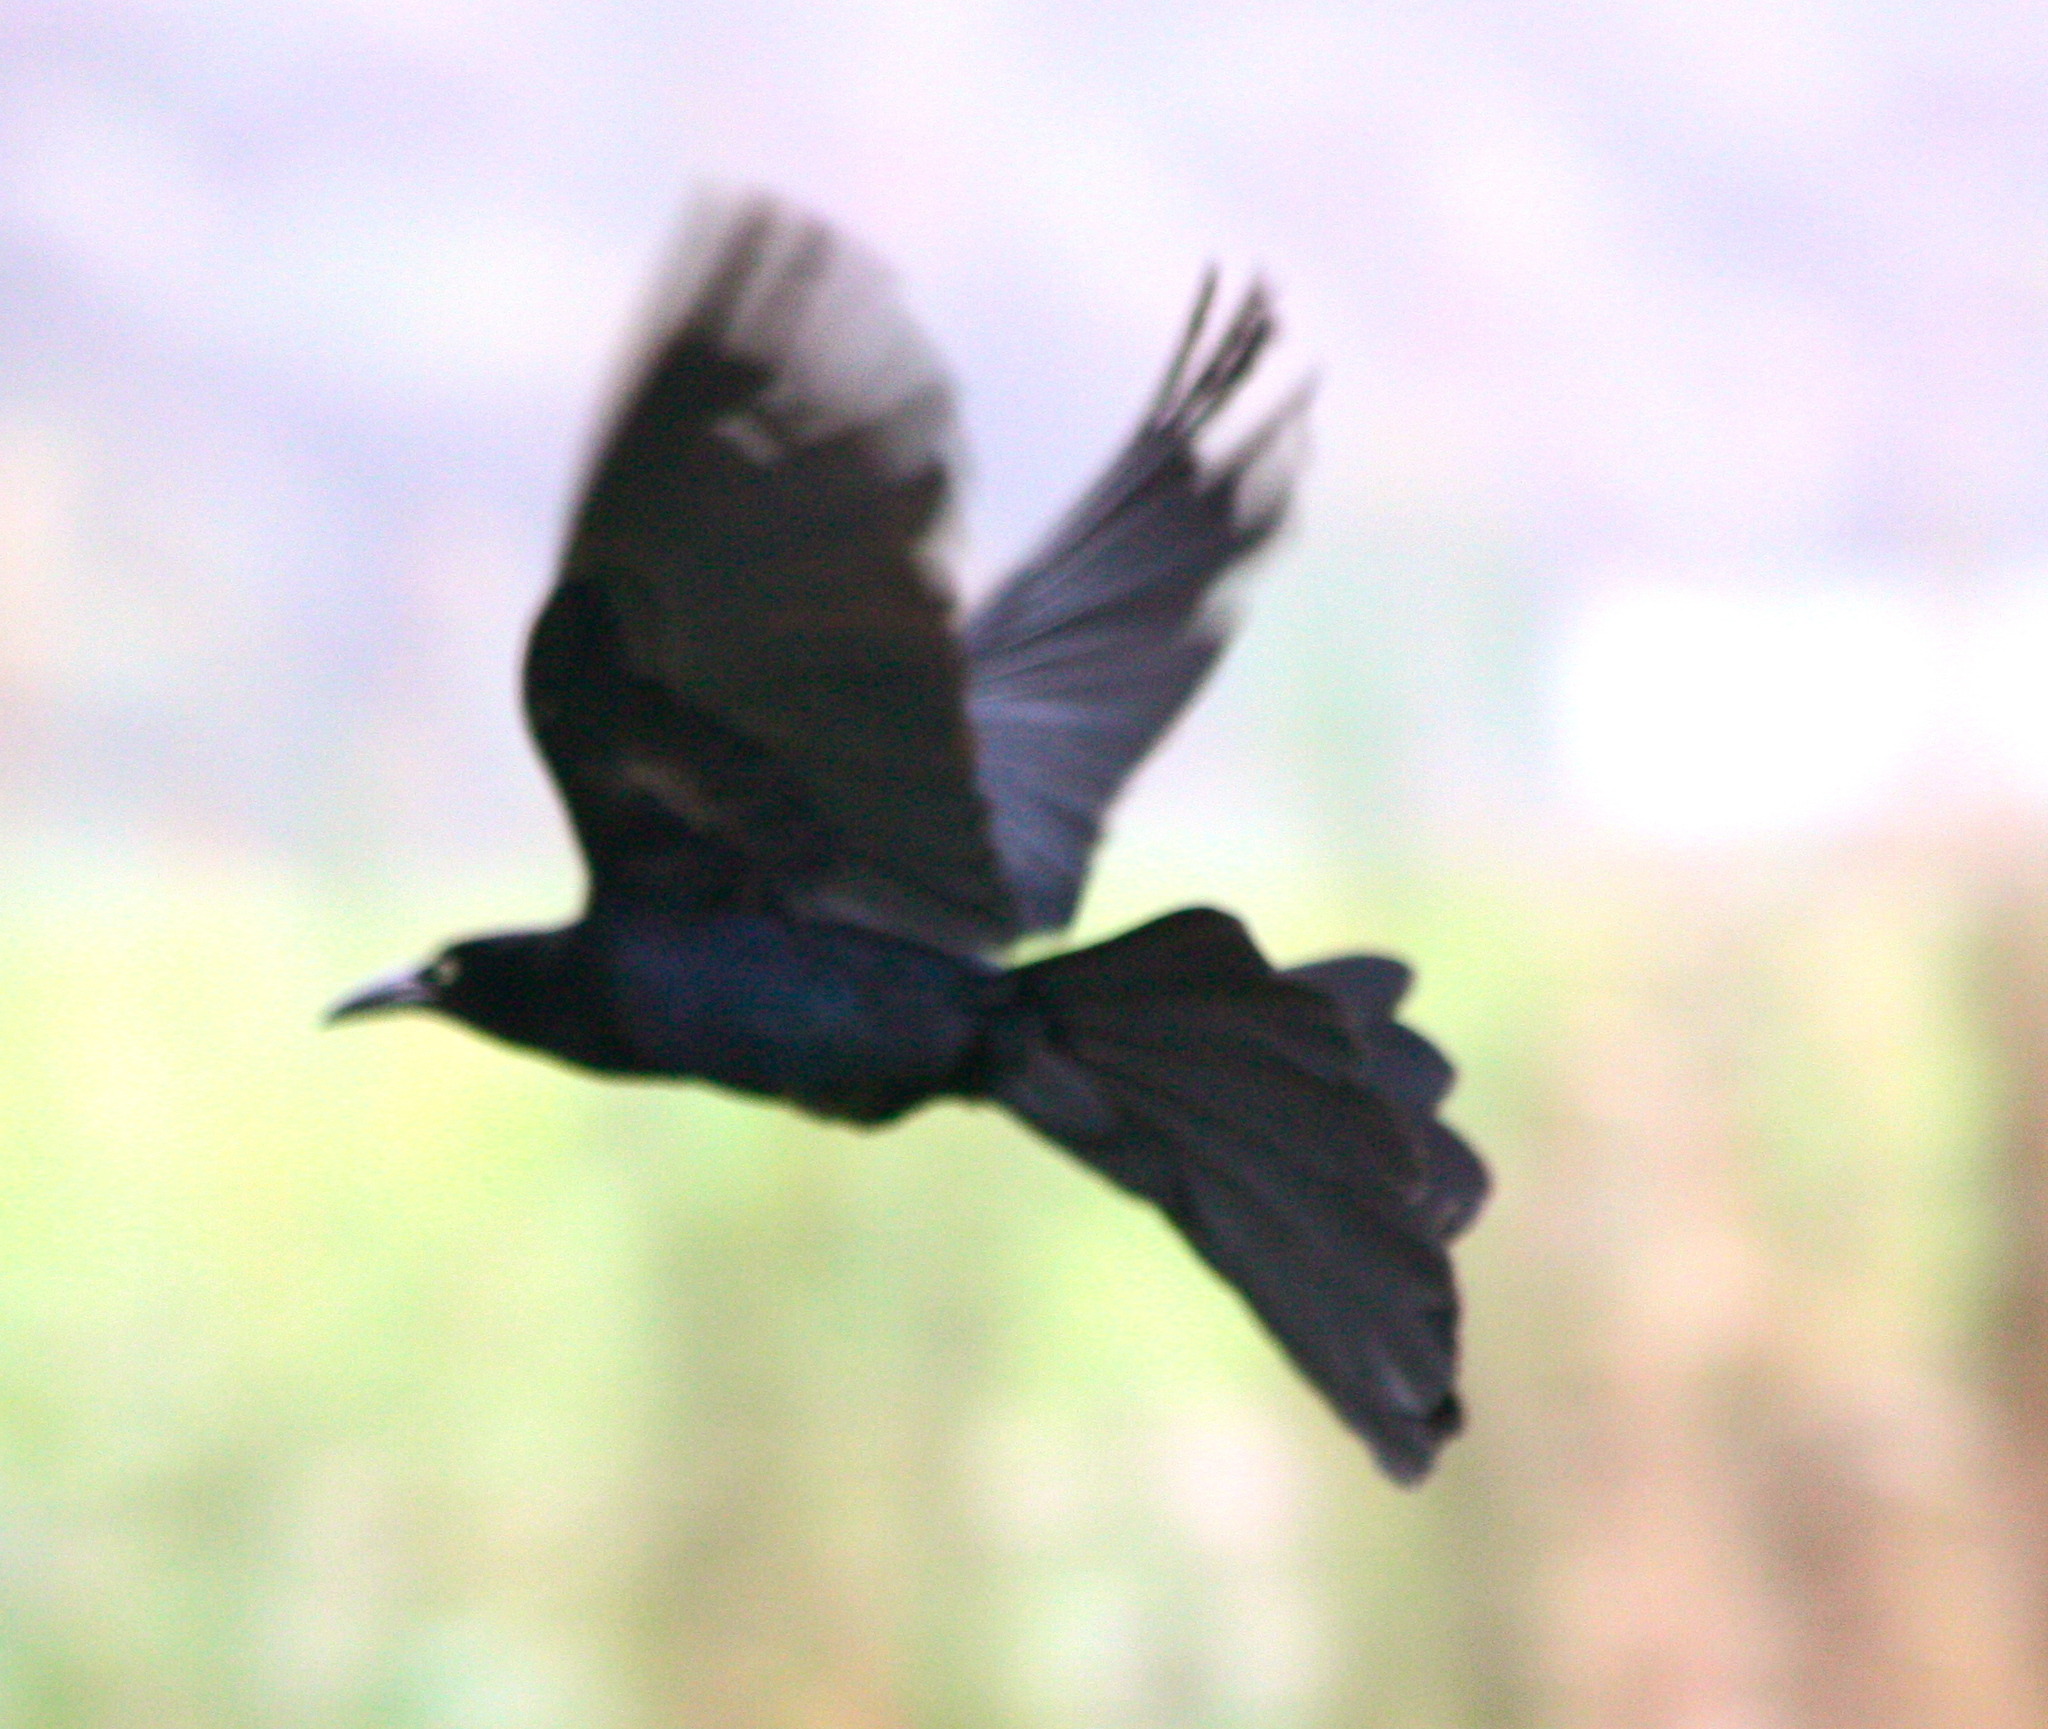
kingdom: Animalia
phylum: Chordata
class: Aves
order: Passeriformes
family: Icteridae
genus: Quiscalus
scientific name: Quiscalus mexicanus
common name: Great-tailed grackle
